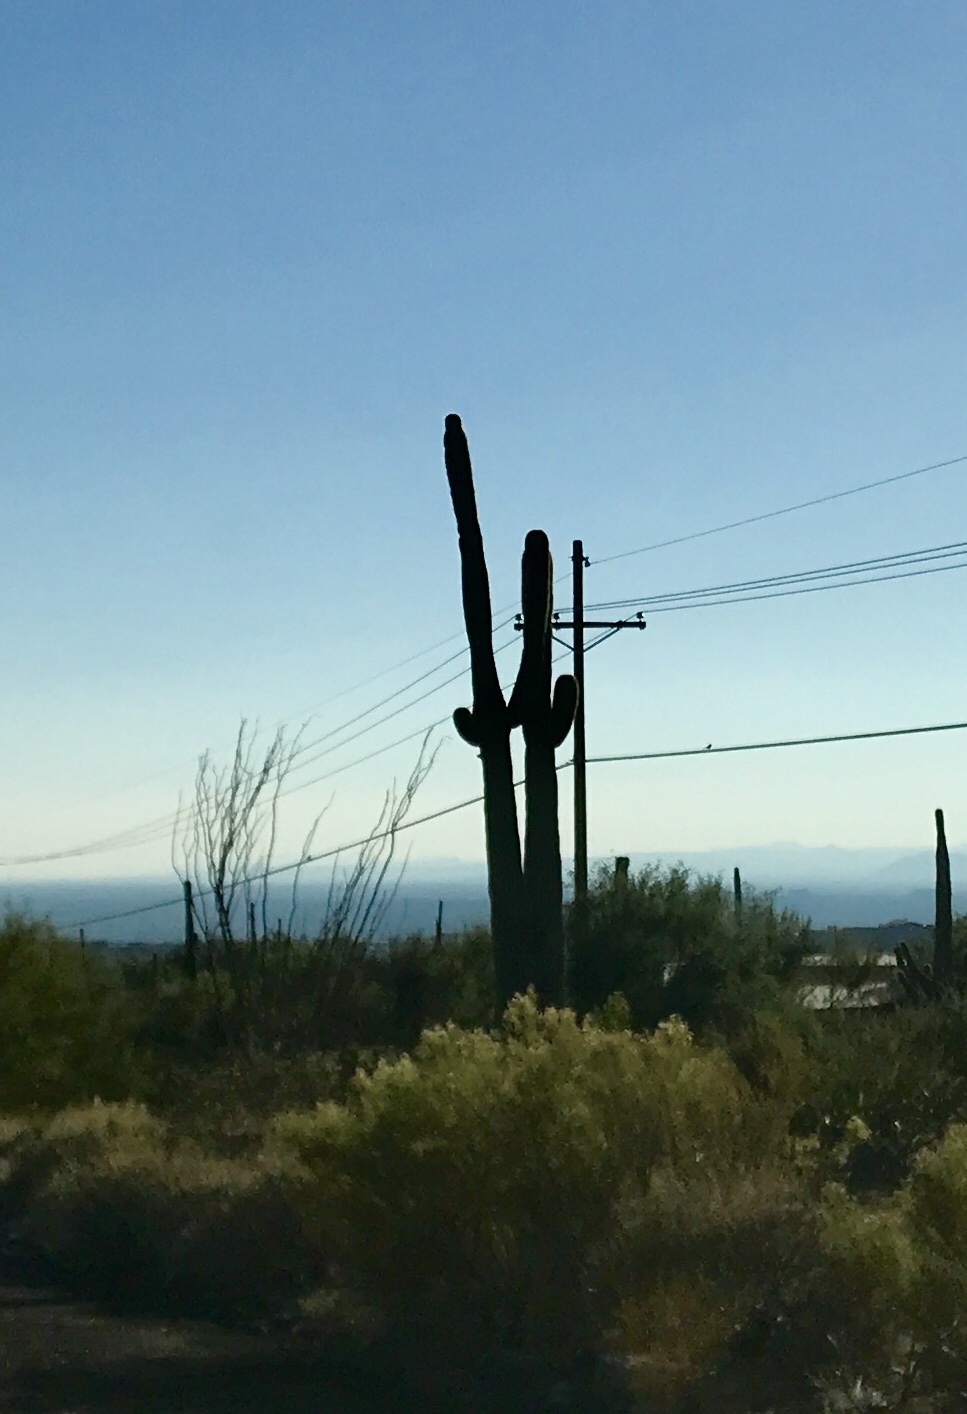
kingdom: Plantae
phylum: Tracheophyta
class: Magnoliopsida
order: Caryophyllales
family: Cactaceae
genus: Carnegiea
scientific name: Carnegiea gigantea
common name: Saguaro
